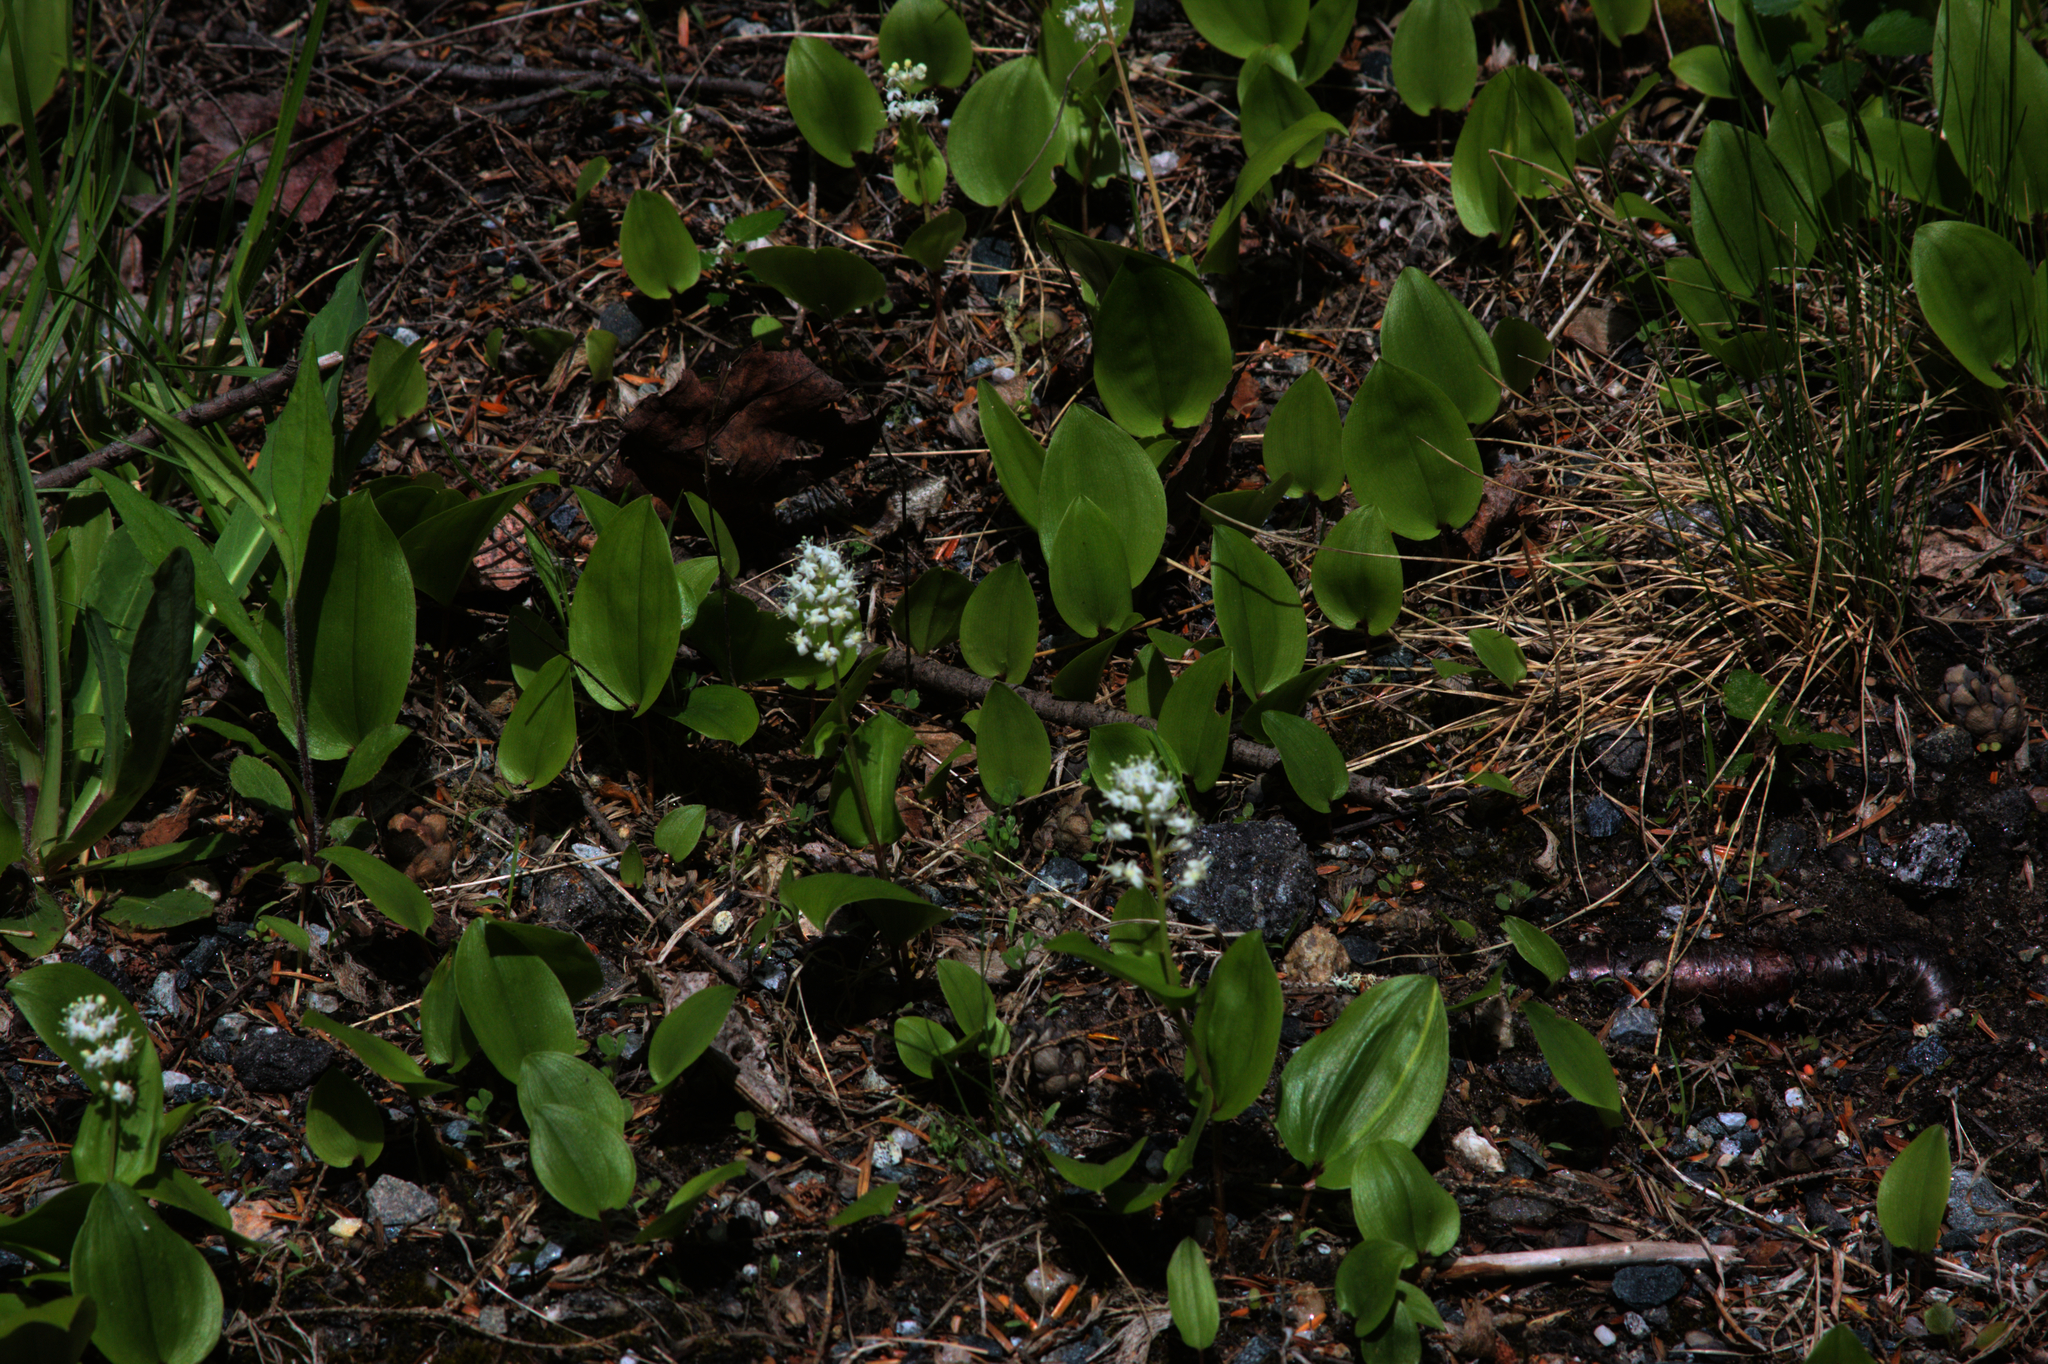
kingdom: Plantae
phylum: Tracheophyta
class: Liliopsida
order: Asparagales
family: Asparagaceae
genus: Maianthemum
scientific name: Maianthemum canadense
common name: False lily-of-the-valley
